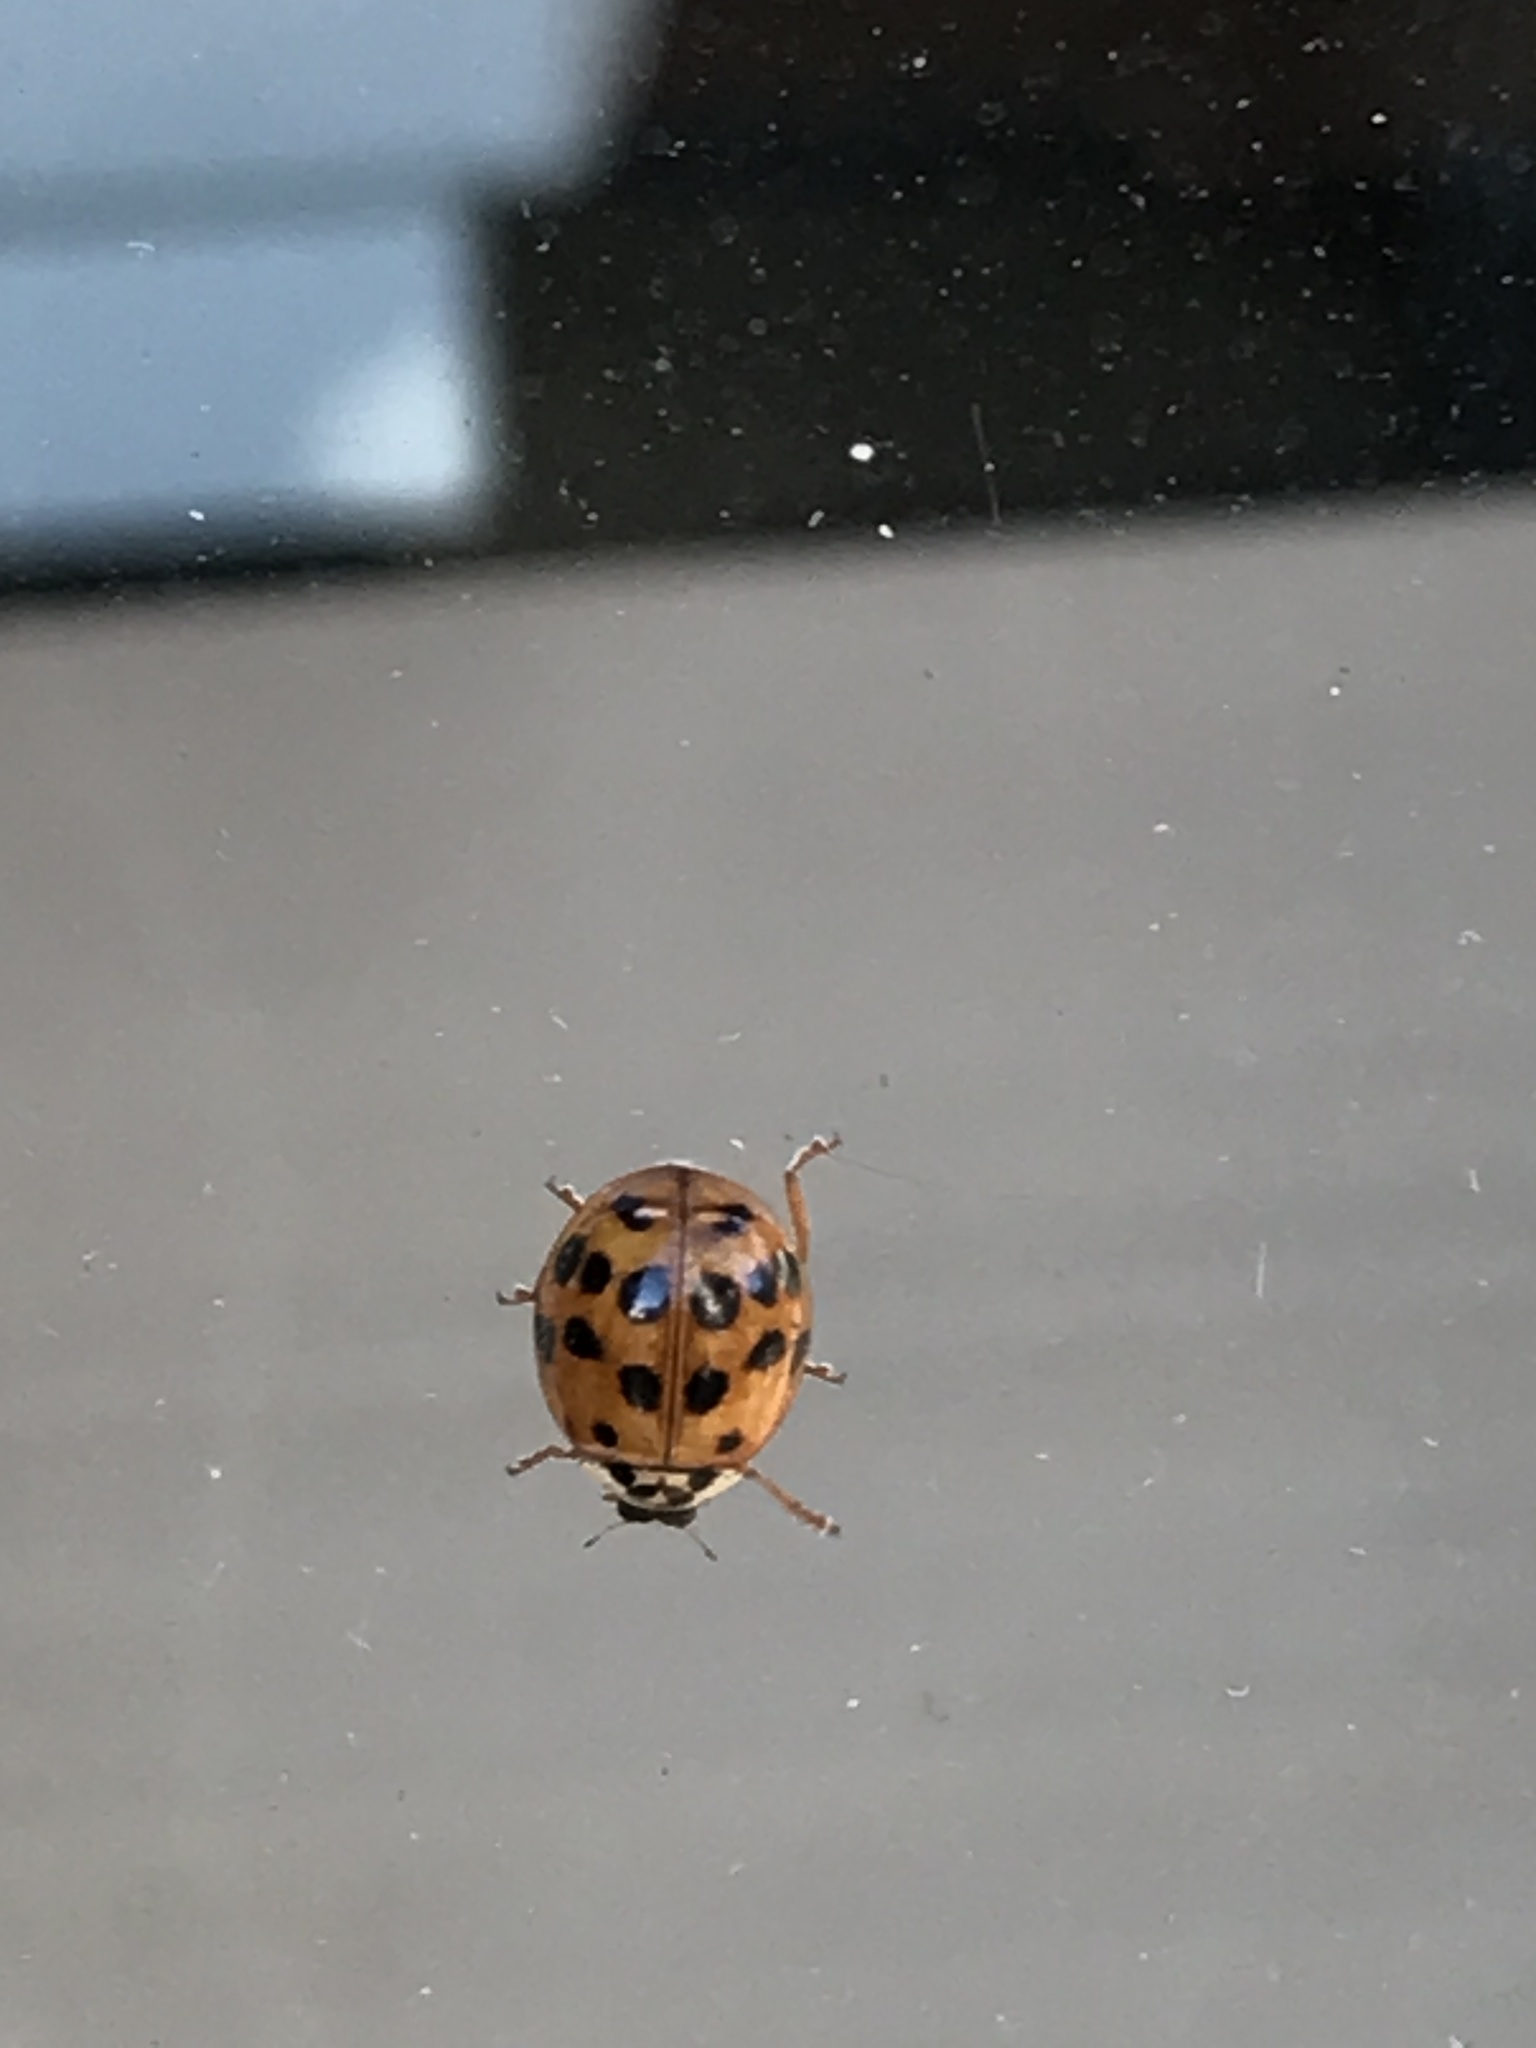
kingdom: Animalia
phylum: Arthropoda
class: Insecta
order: Coleoptera
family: Coccinellidae
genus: Harmonia
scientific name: Harmonia axyridis
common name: Harlequin ladybird
